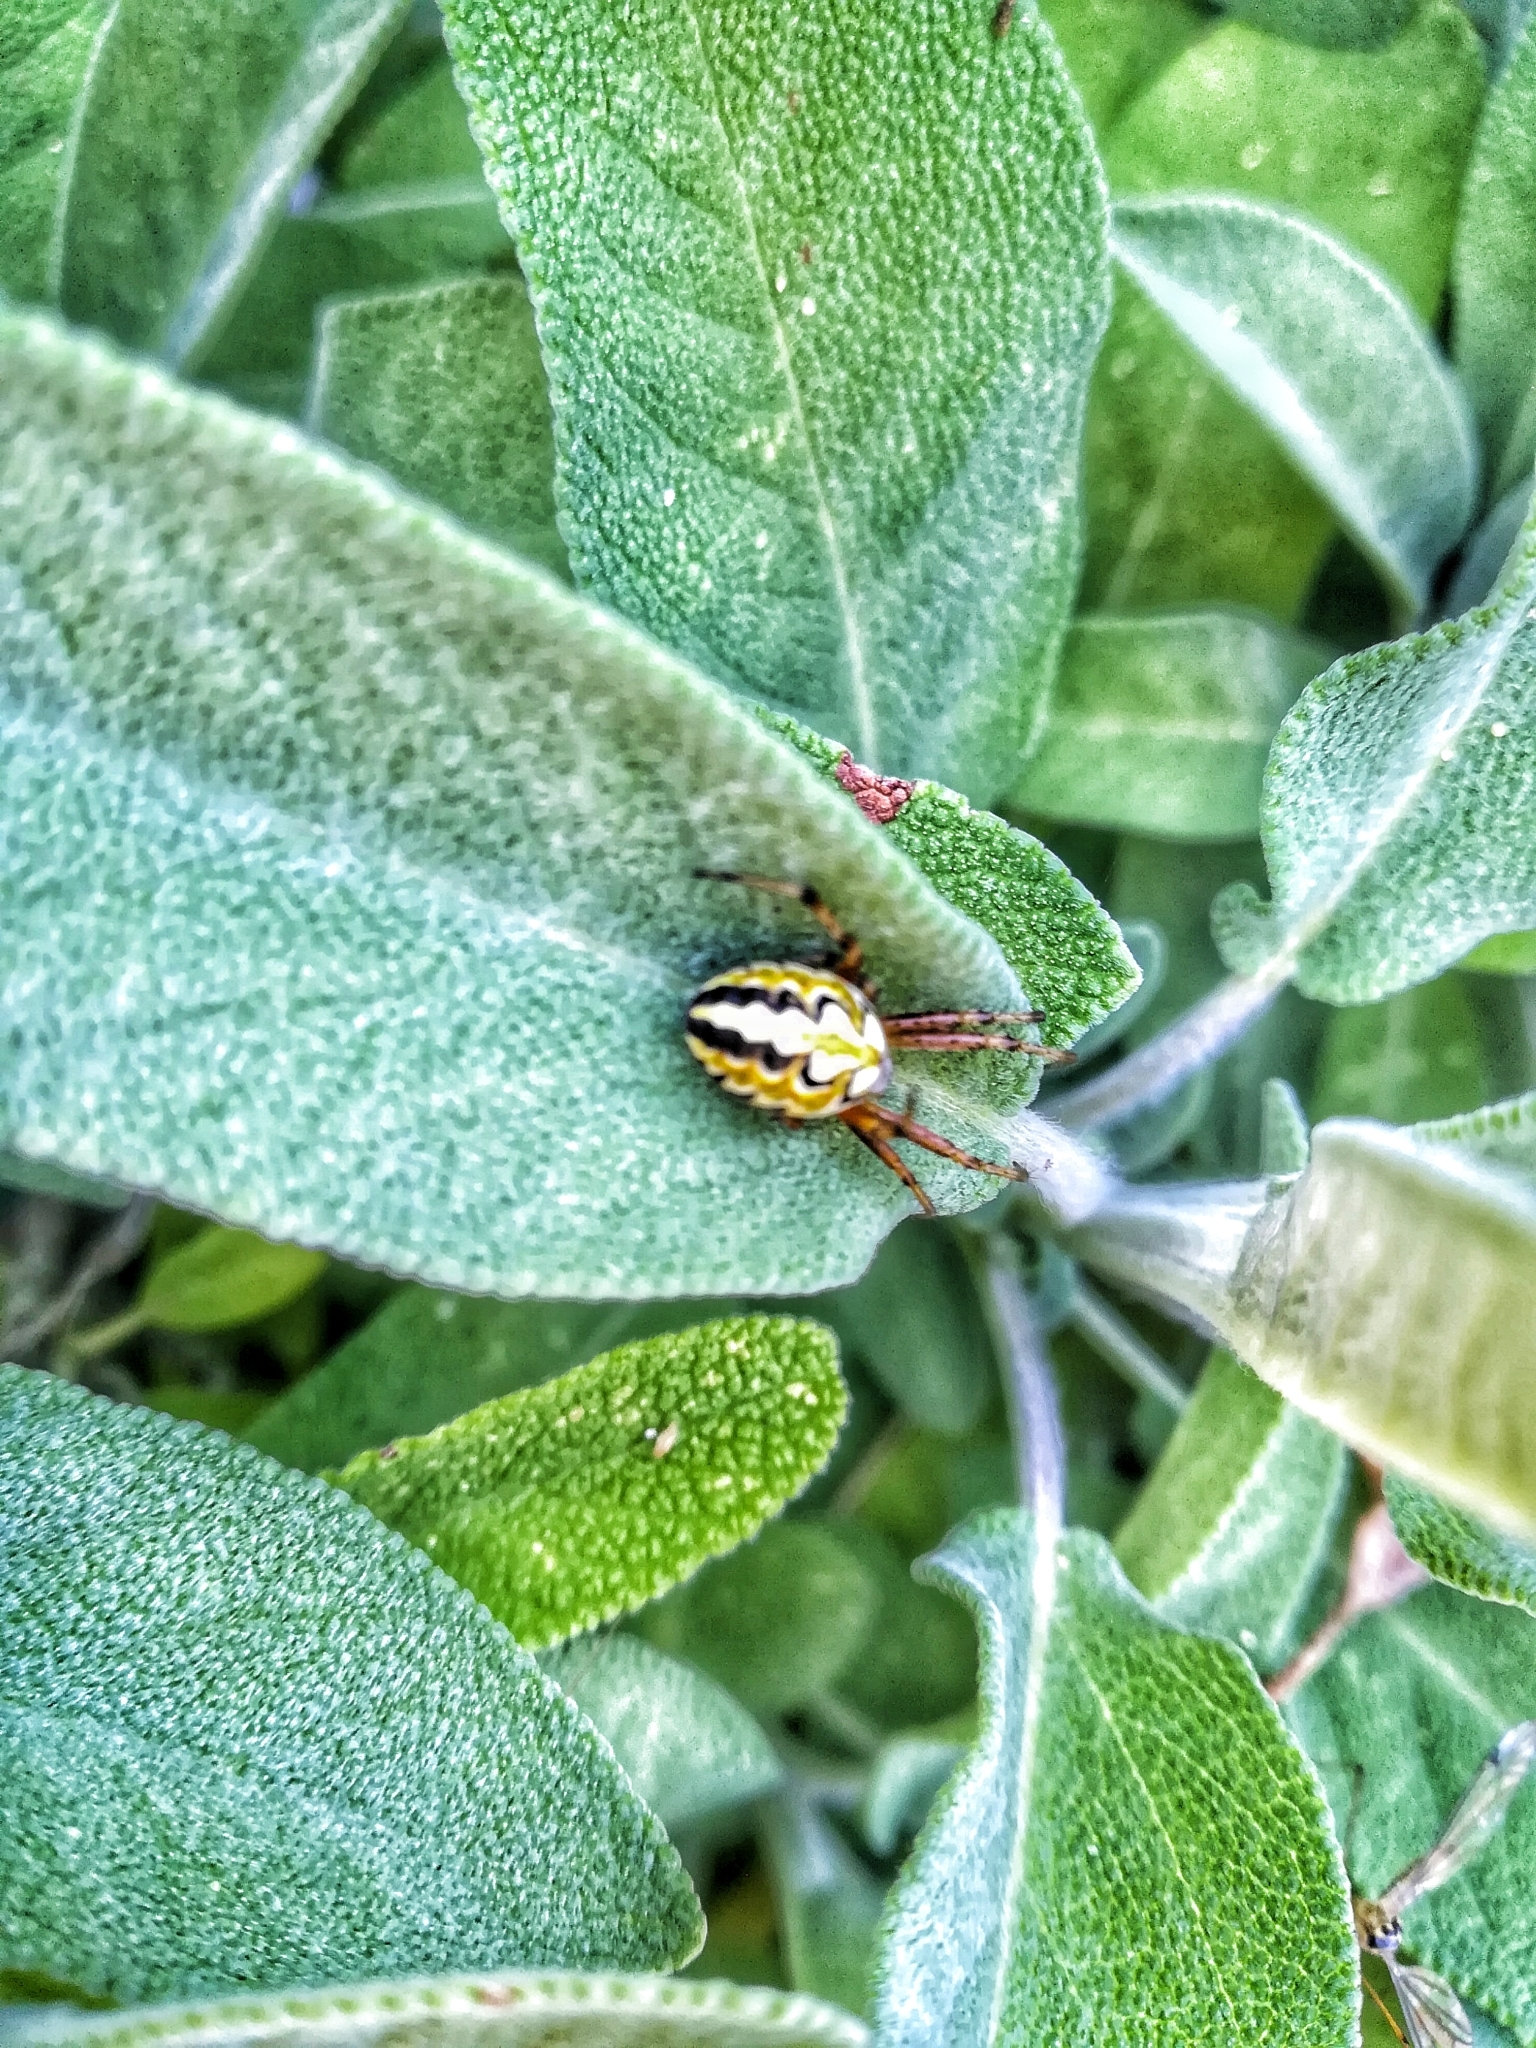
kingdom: Animalia
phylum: Arthropoda
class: Arachnida
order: Araneae
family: Araneidae
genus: Neoscona
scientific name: Neoscona adianta
